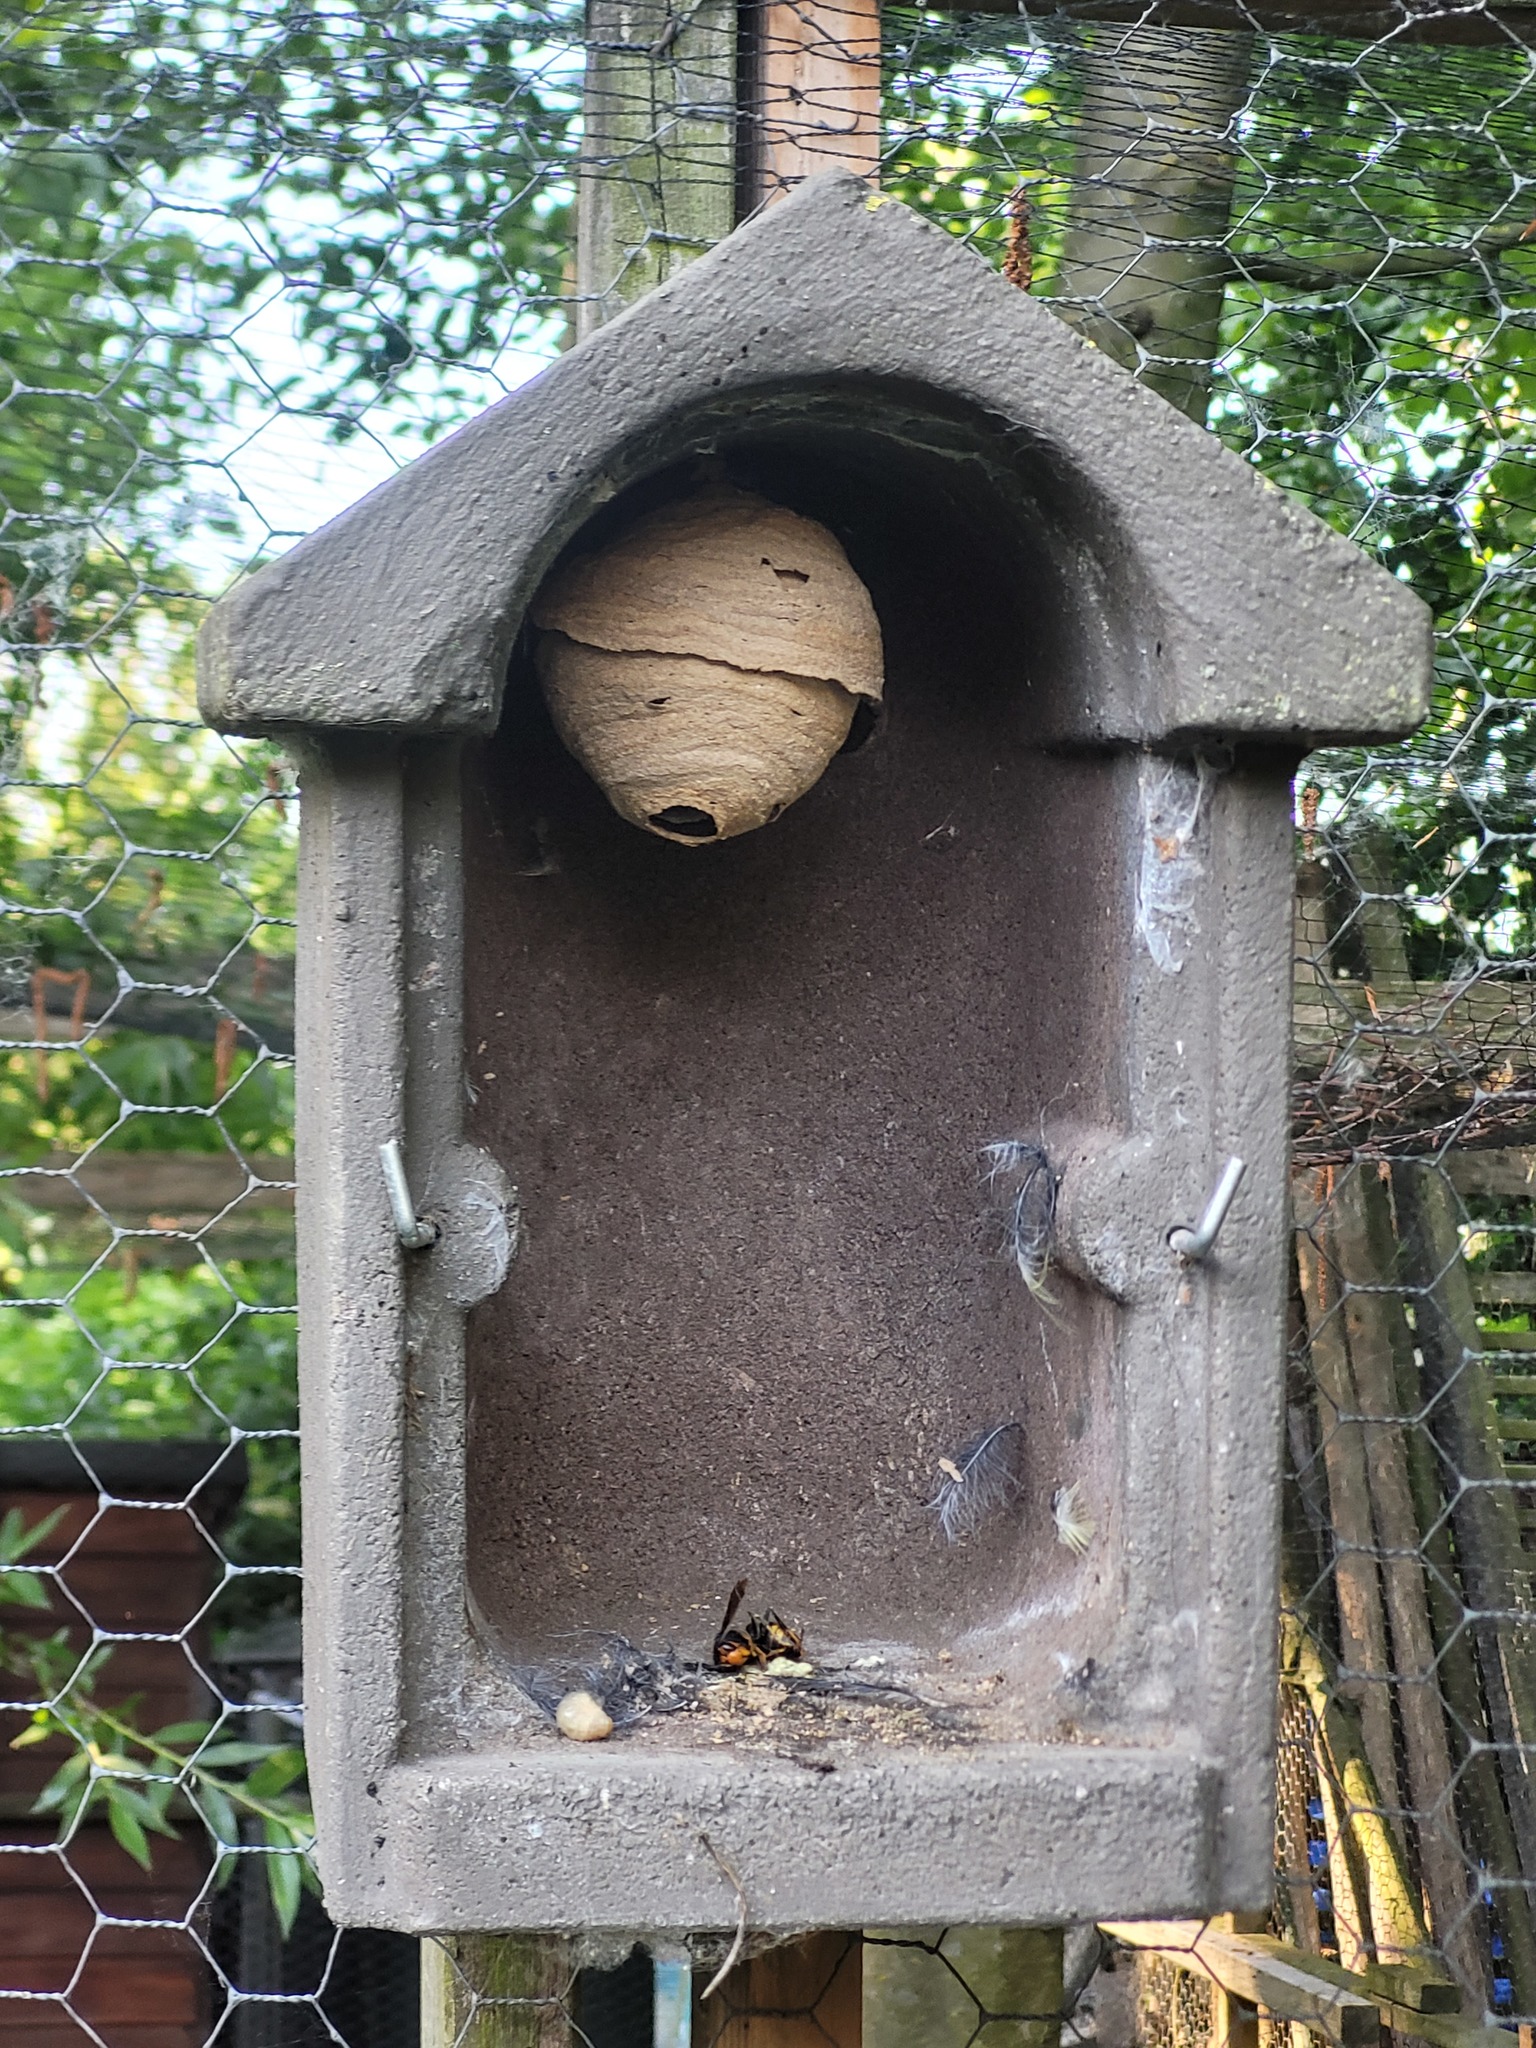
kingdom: Animalia
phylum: Arthropoda
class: Insecta
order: Hymenoptera
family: Vespidae
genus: Vespa
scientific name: Vespa velutina
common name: Asian hornet
